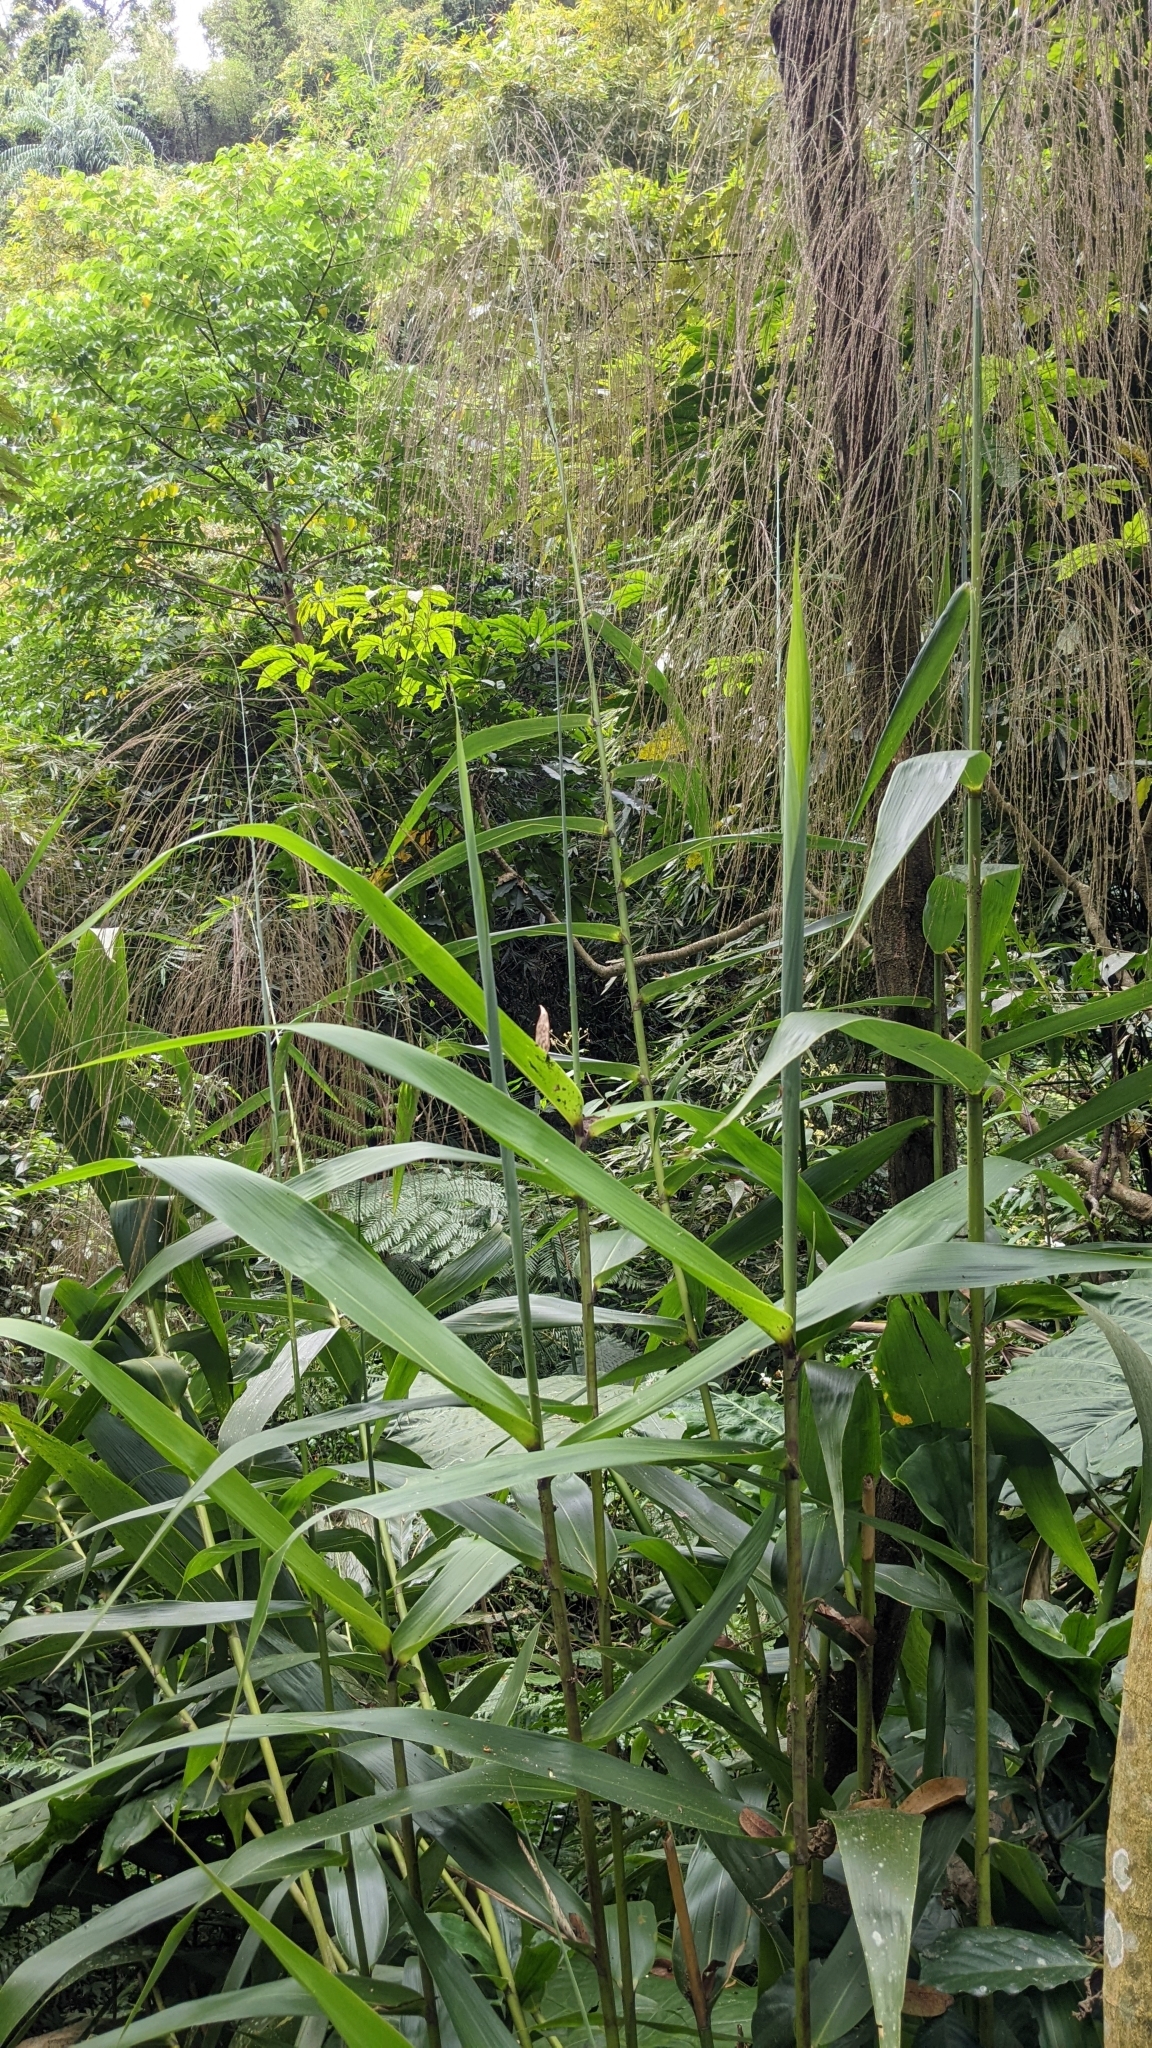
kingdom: Plantae
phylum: Tracheophyta
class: Liliopsida
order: Poales
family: Poaceae
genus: Thysanolaena
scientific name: Thysanolaena latifolia
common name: Tiger grass
